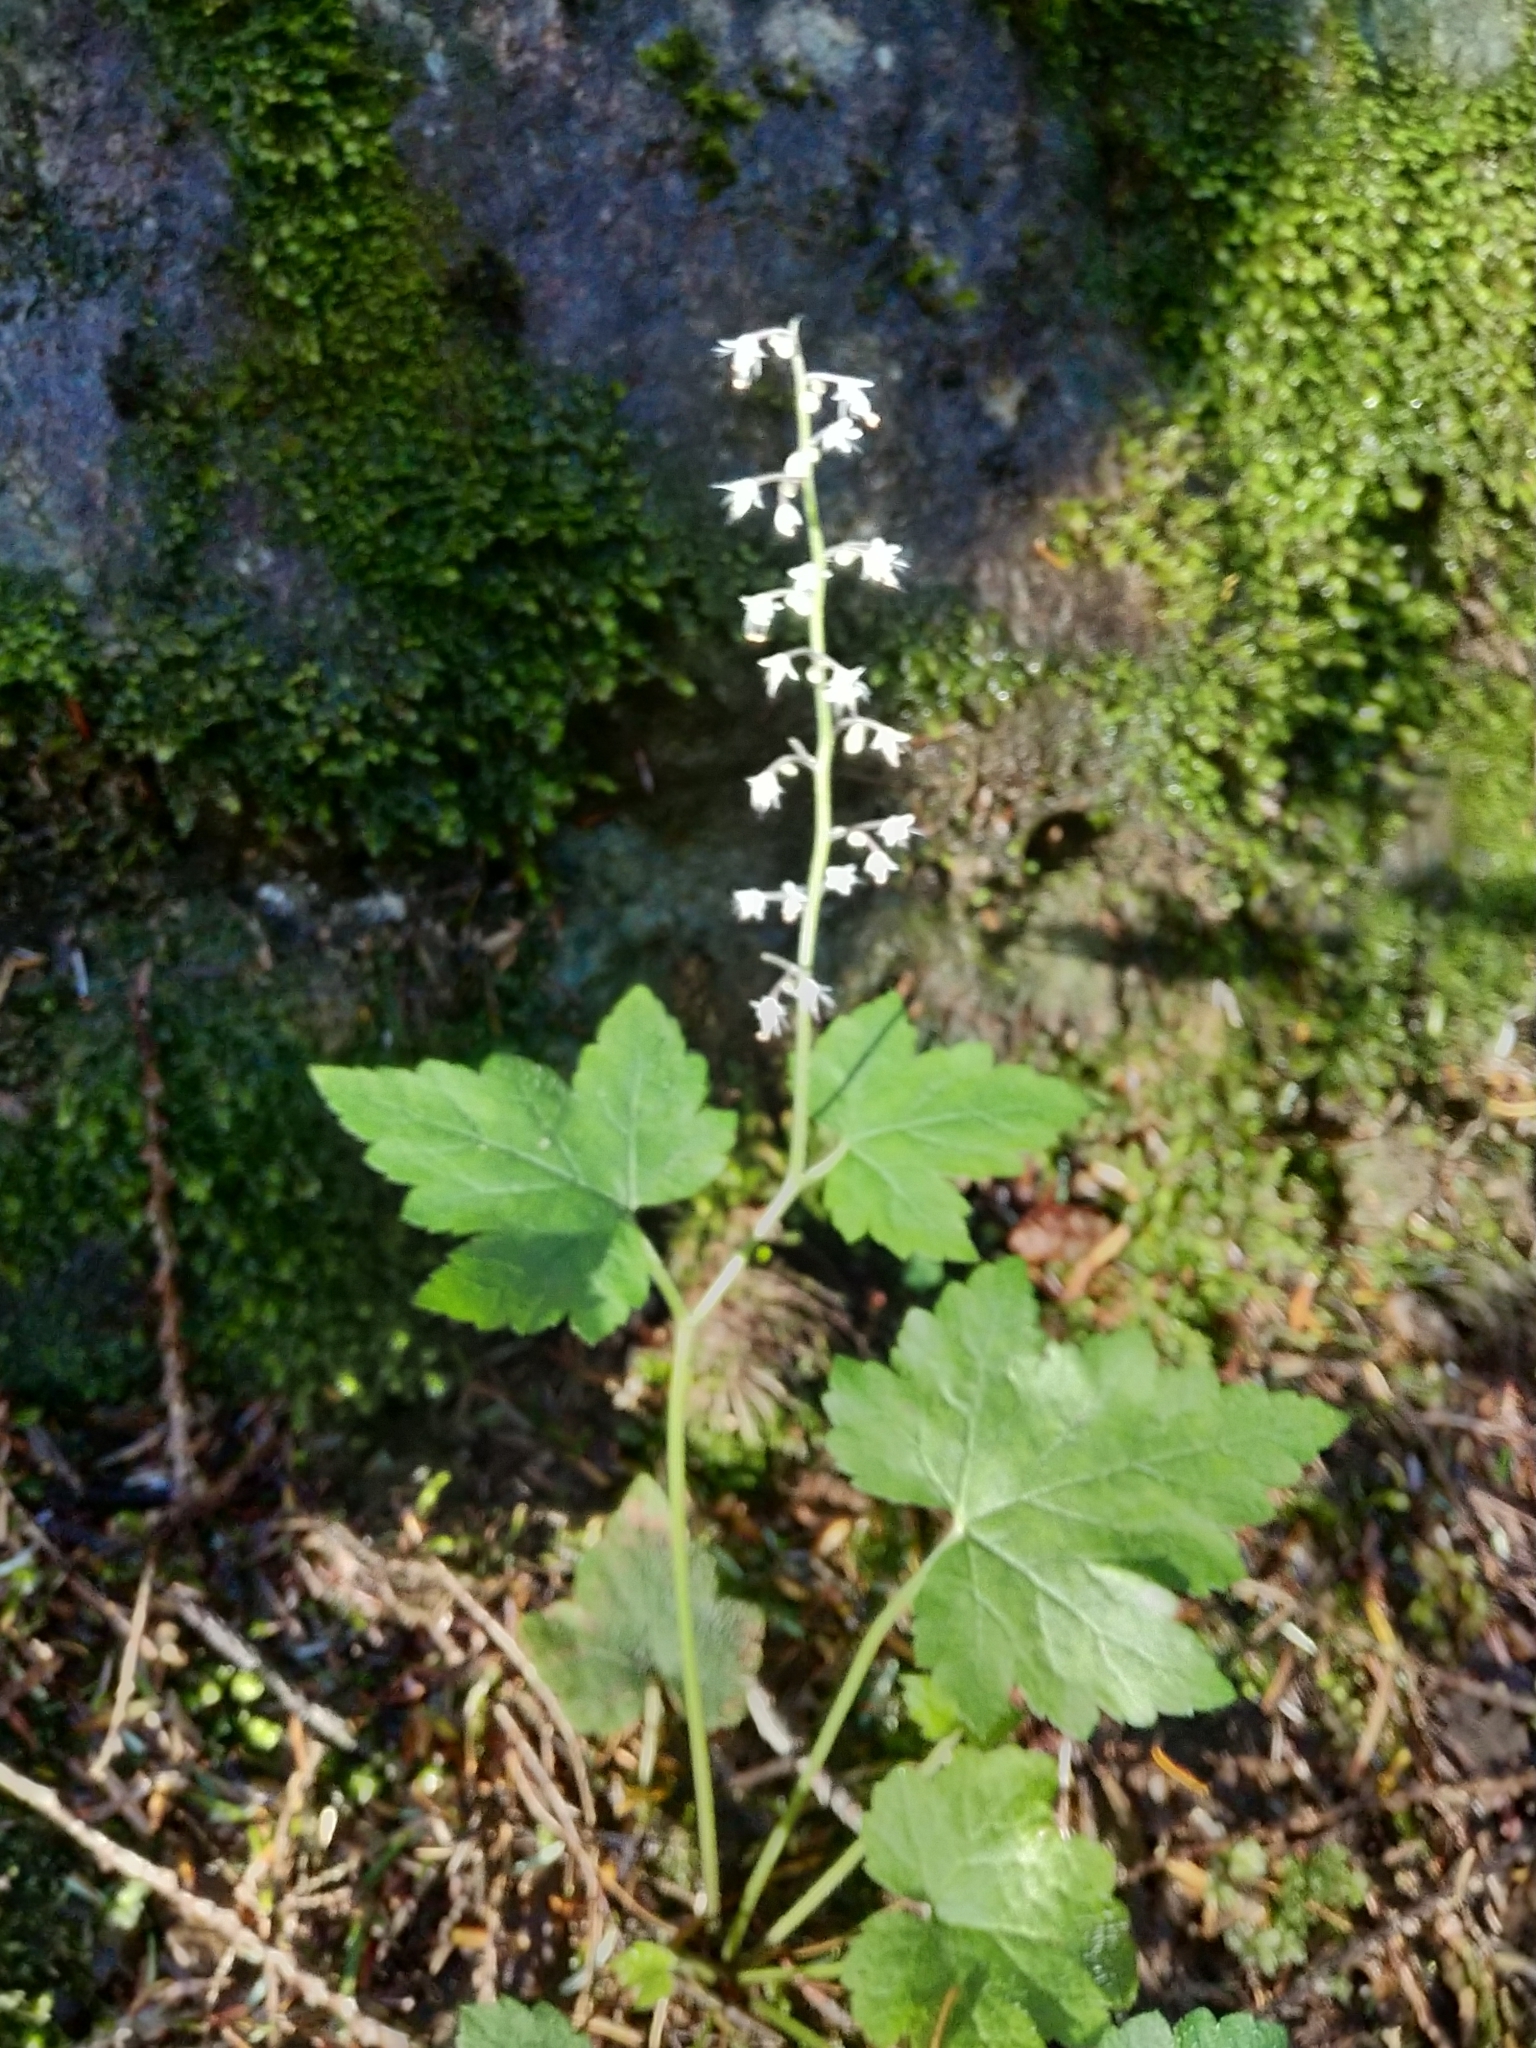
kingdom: Plantae
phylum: Tracheophyta
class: Magnoliopsida
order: Saxifragales
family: Saxifragaceae
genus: Tiarella
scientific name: Tiarella trifoliata
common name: Sugar-scoop
